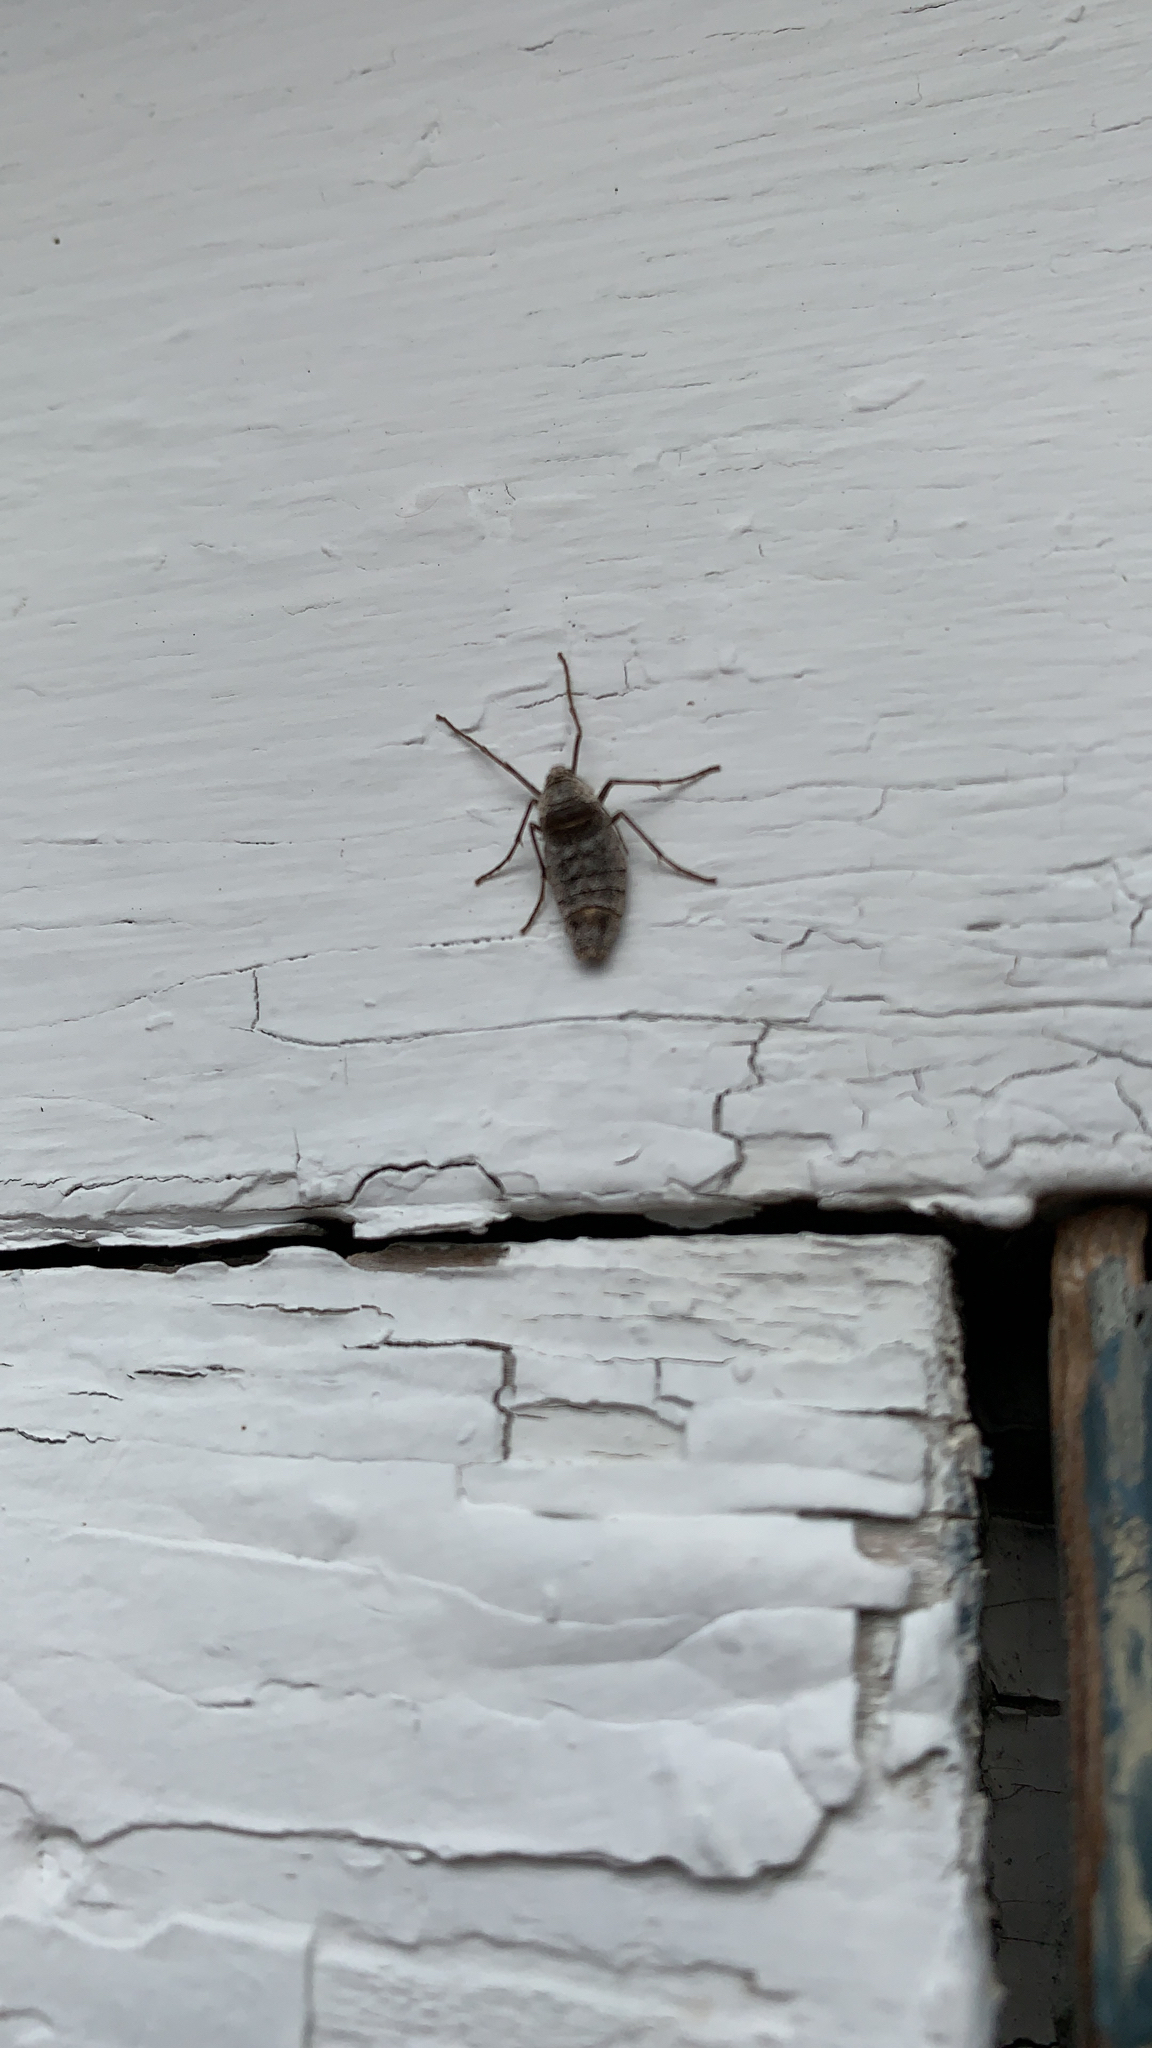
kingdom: Animalia
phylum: Arthropoda
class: Insecta
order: Lepidoptera
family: Geometridae
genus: Alsophila
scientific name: Alsophila pometaria
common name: Fall cankerworm
